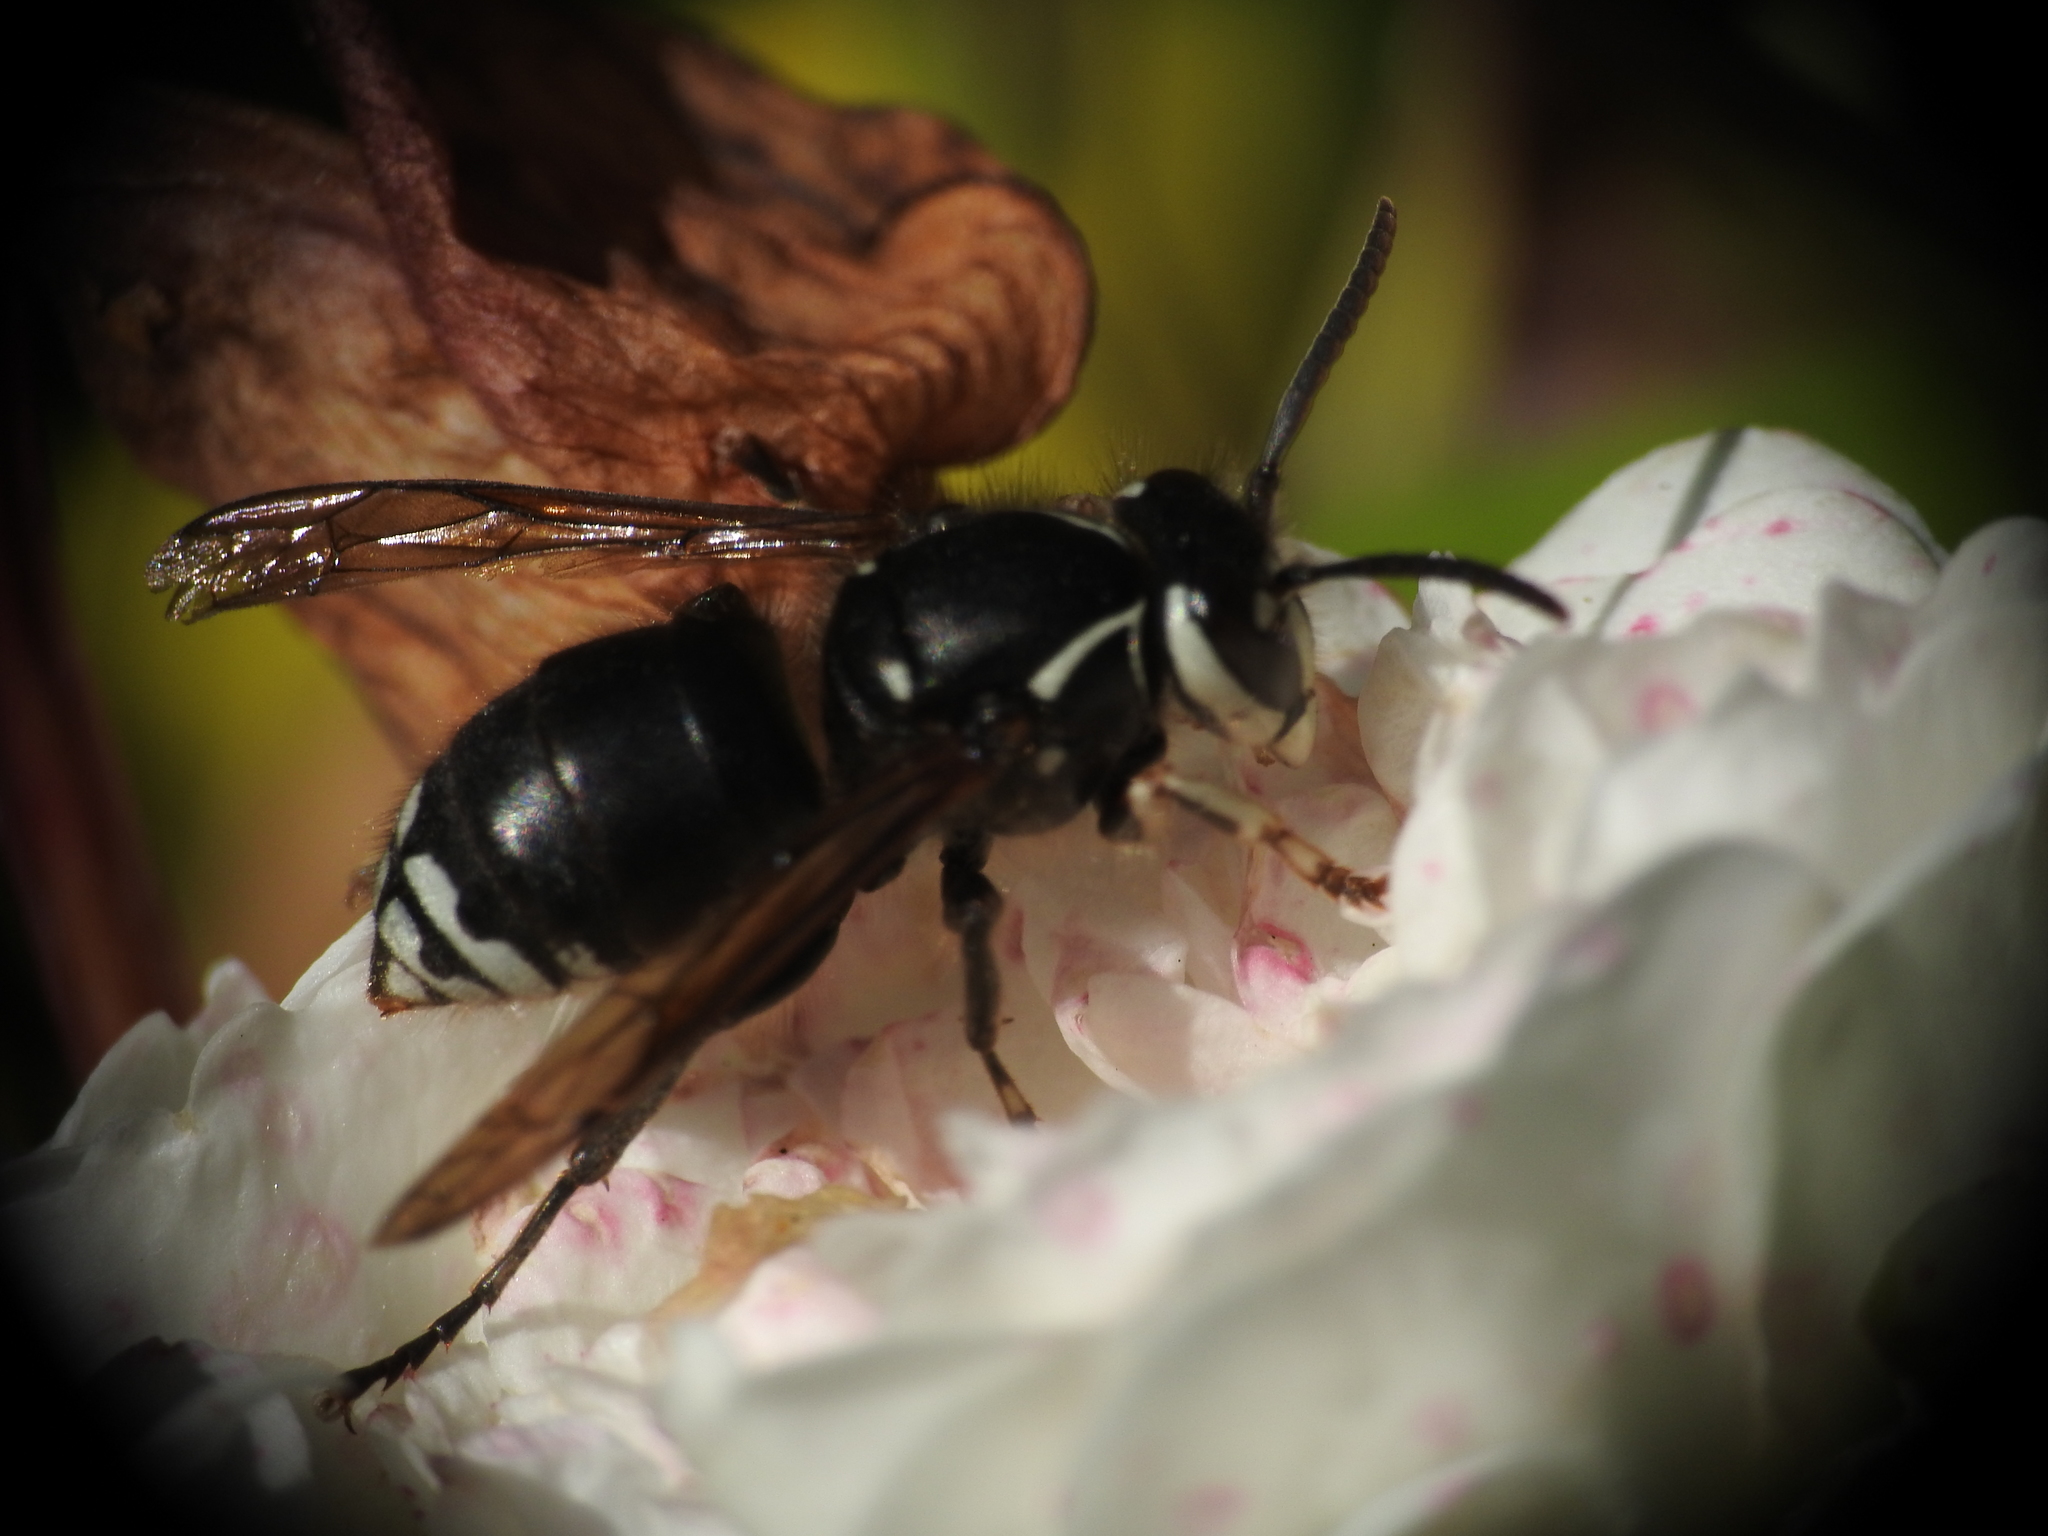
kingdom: Animalia
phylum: Arthropoda
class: Insecta
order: Hymenoptera
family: Vespidae
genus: Dolichovespula
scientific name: Dolichovespula maculata
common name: Bald-faced hornet
